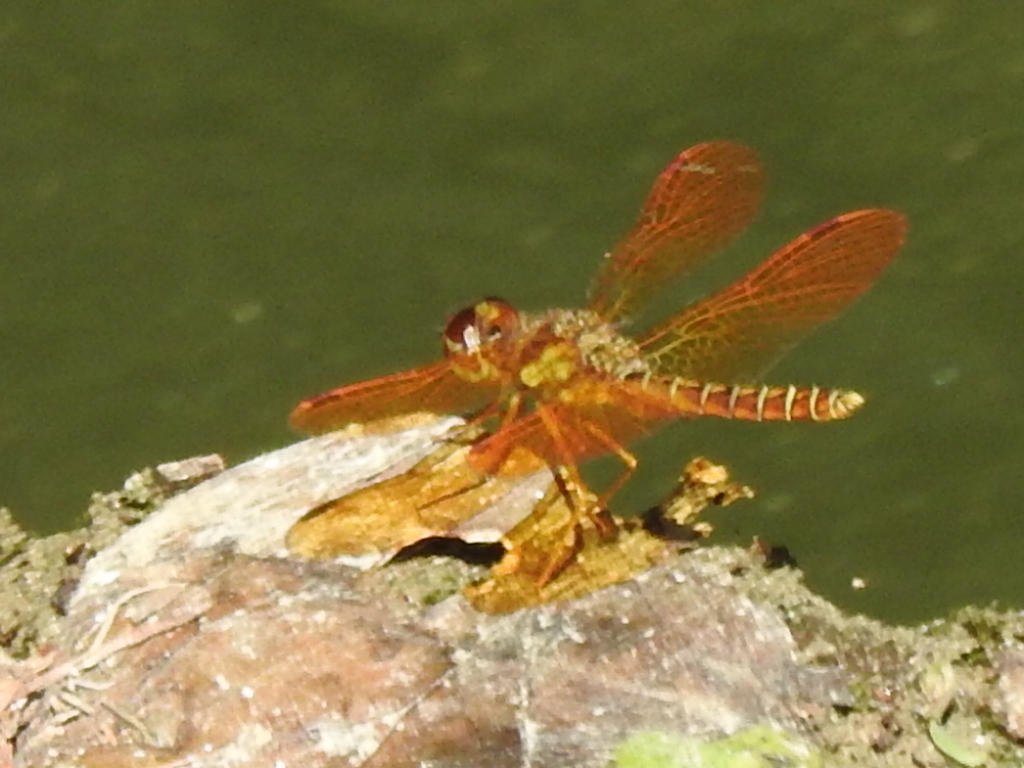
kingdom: Animalia
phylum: Arthropoda
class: Insecta
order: Odonata
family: Libellulidae
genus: Perithemis
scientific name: Perithemis tenera
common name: Eastern amberwing
